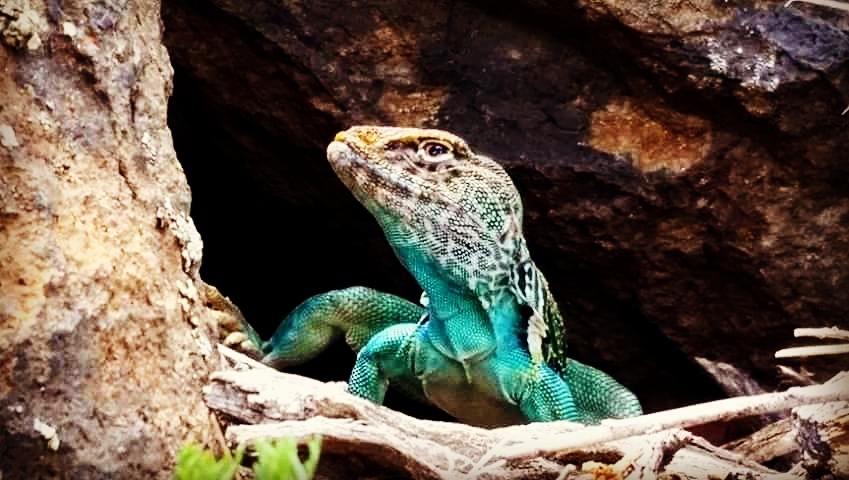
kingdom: Animalia
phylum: Chordata
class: Squamata
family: Crotaphytidae
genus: Crotaphytus
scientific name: Crotaphytus collaris
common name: Collared lizard
